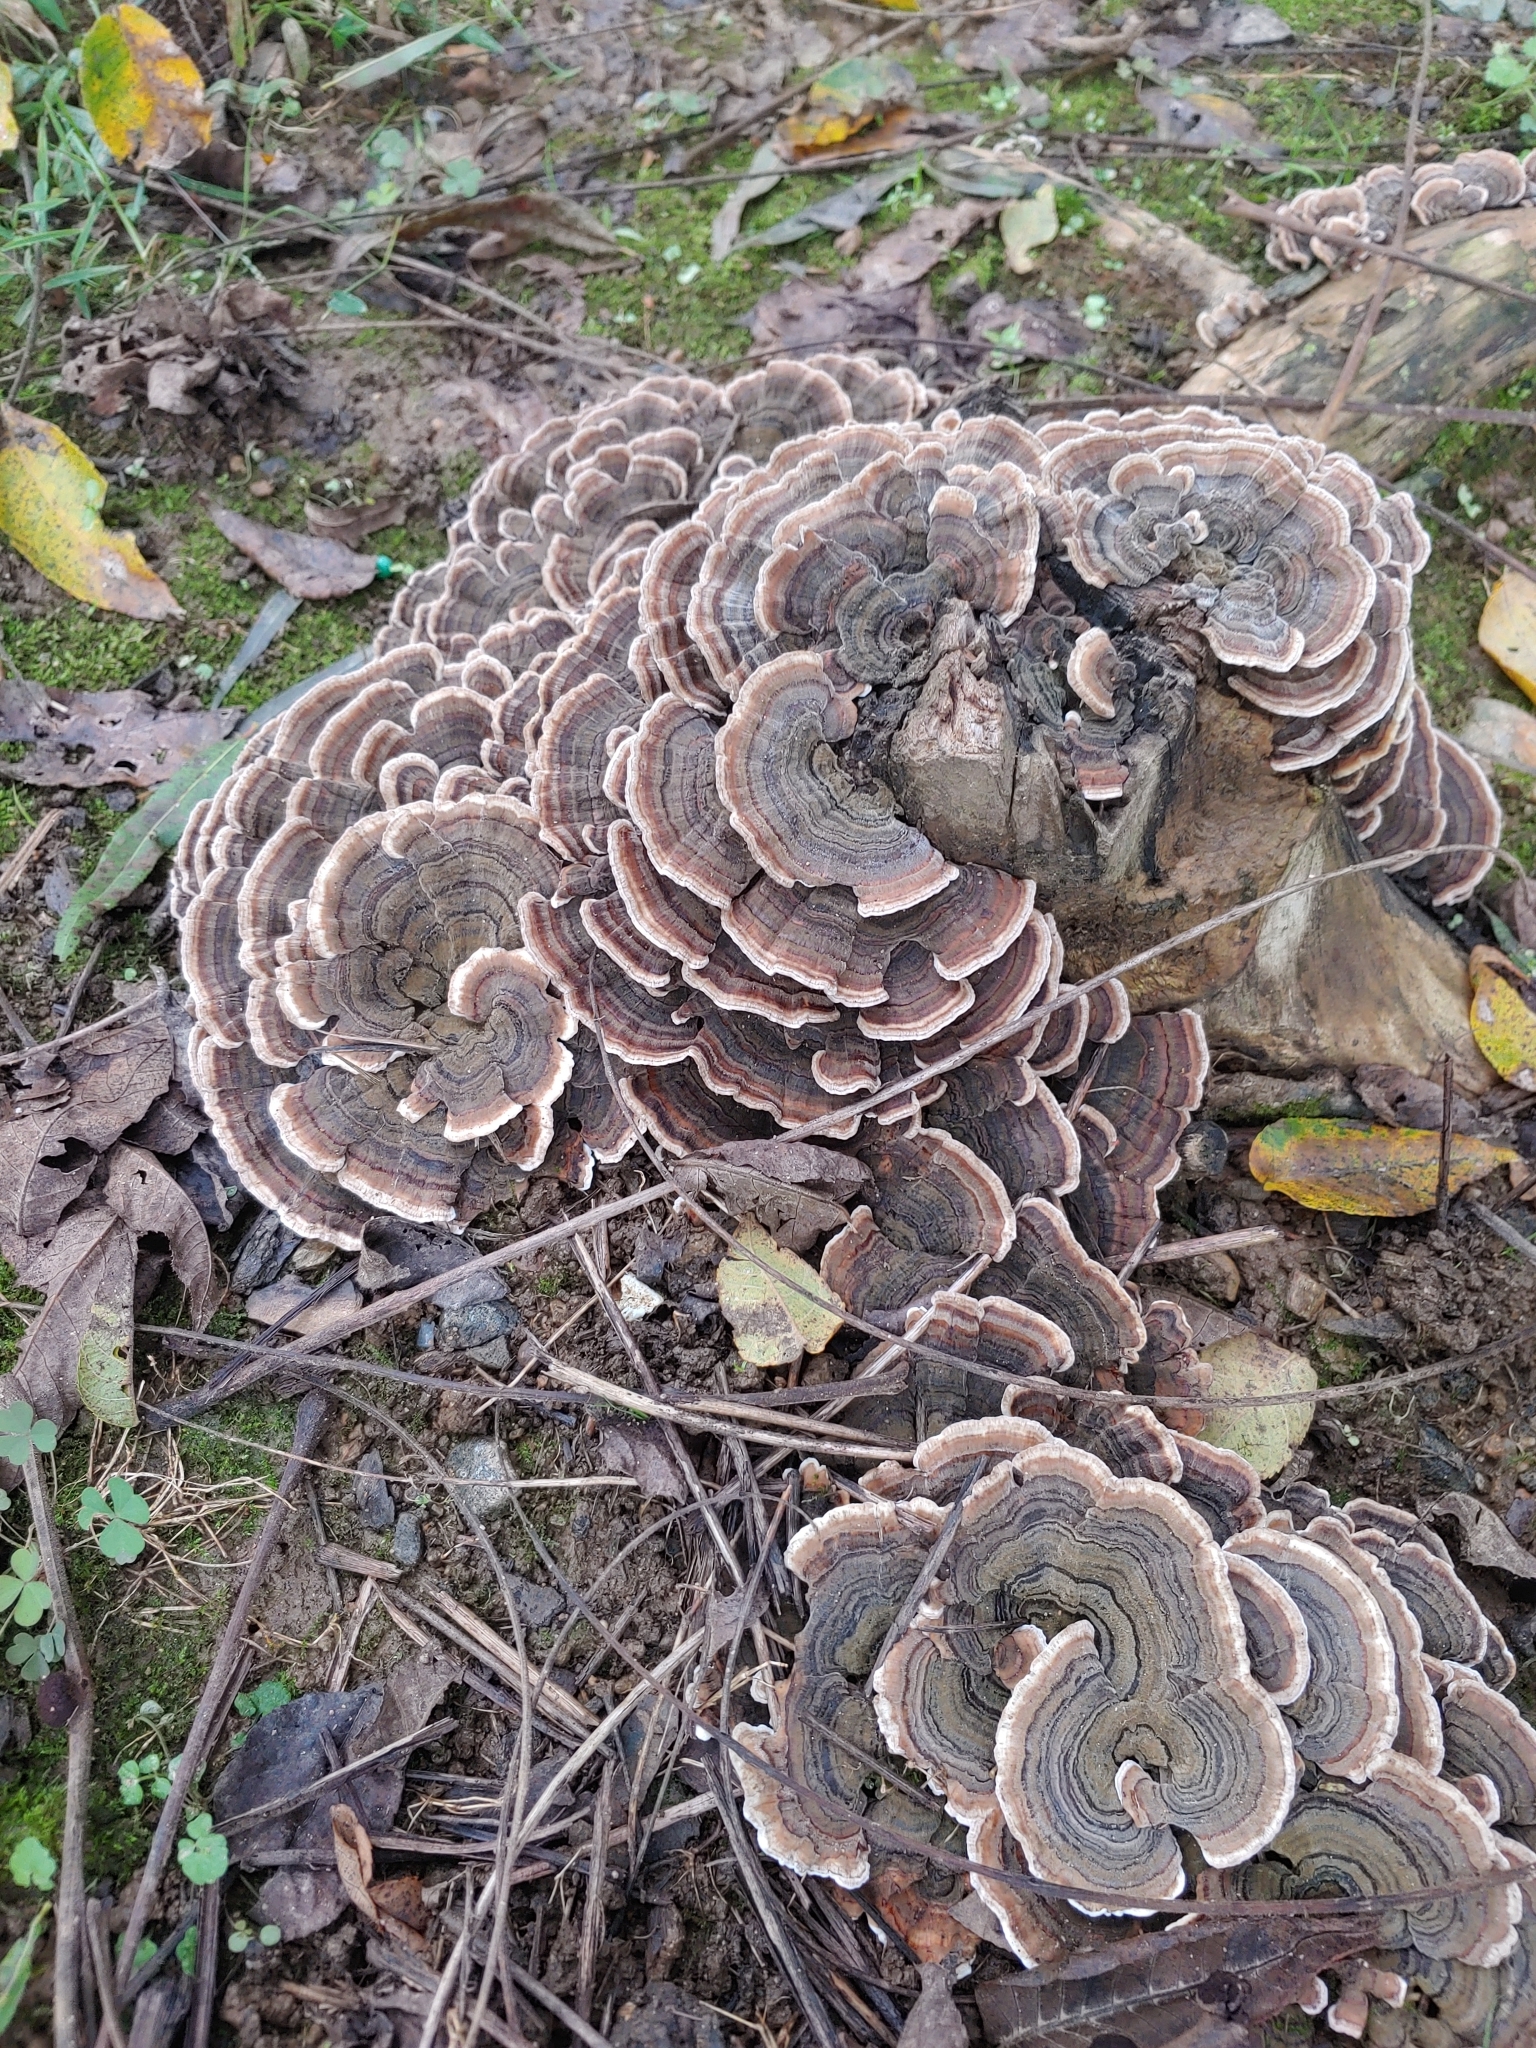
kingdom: Fungi
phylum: Basidiomycota
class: Agaricomycetes
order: Polyporales
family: Polyporaceae
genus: Trametes
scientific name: Trametes versicolor
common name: Turkeytail
